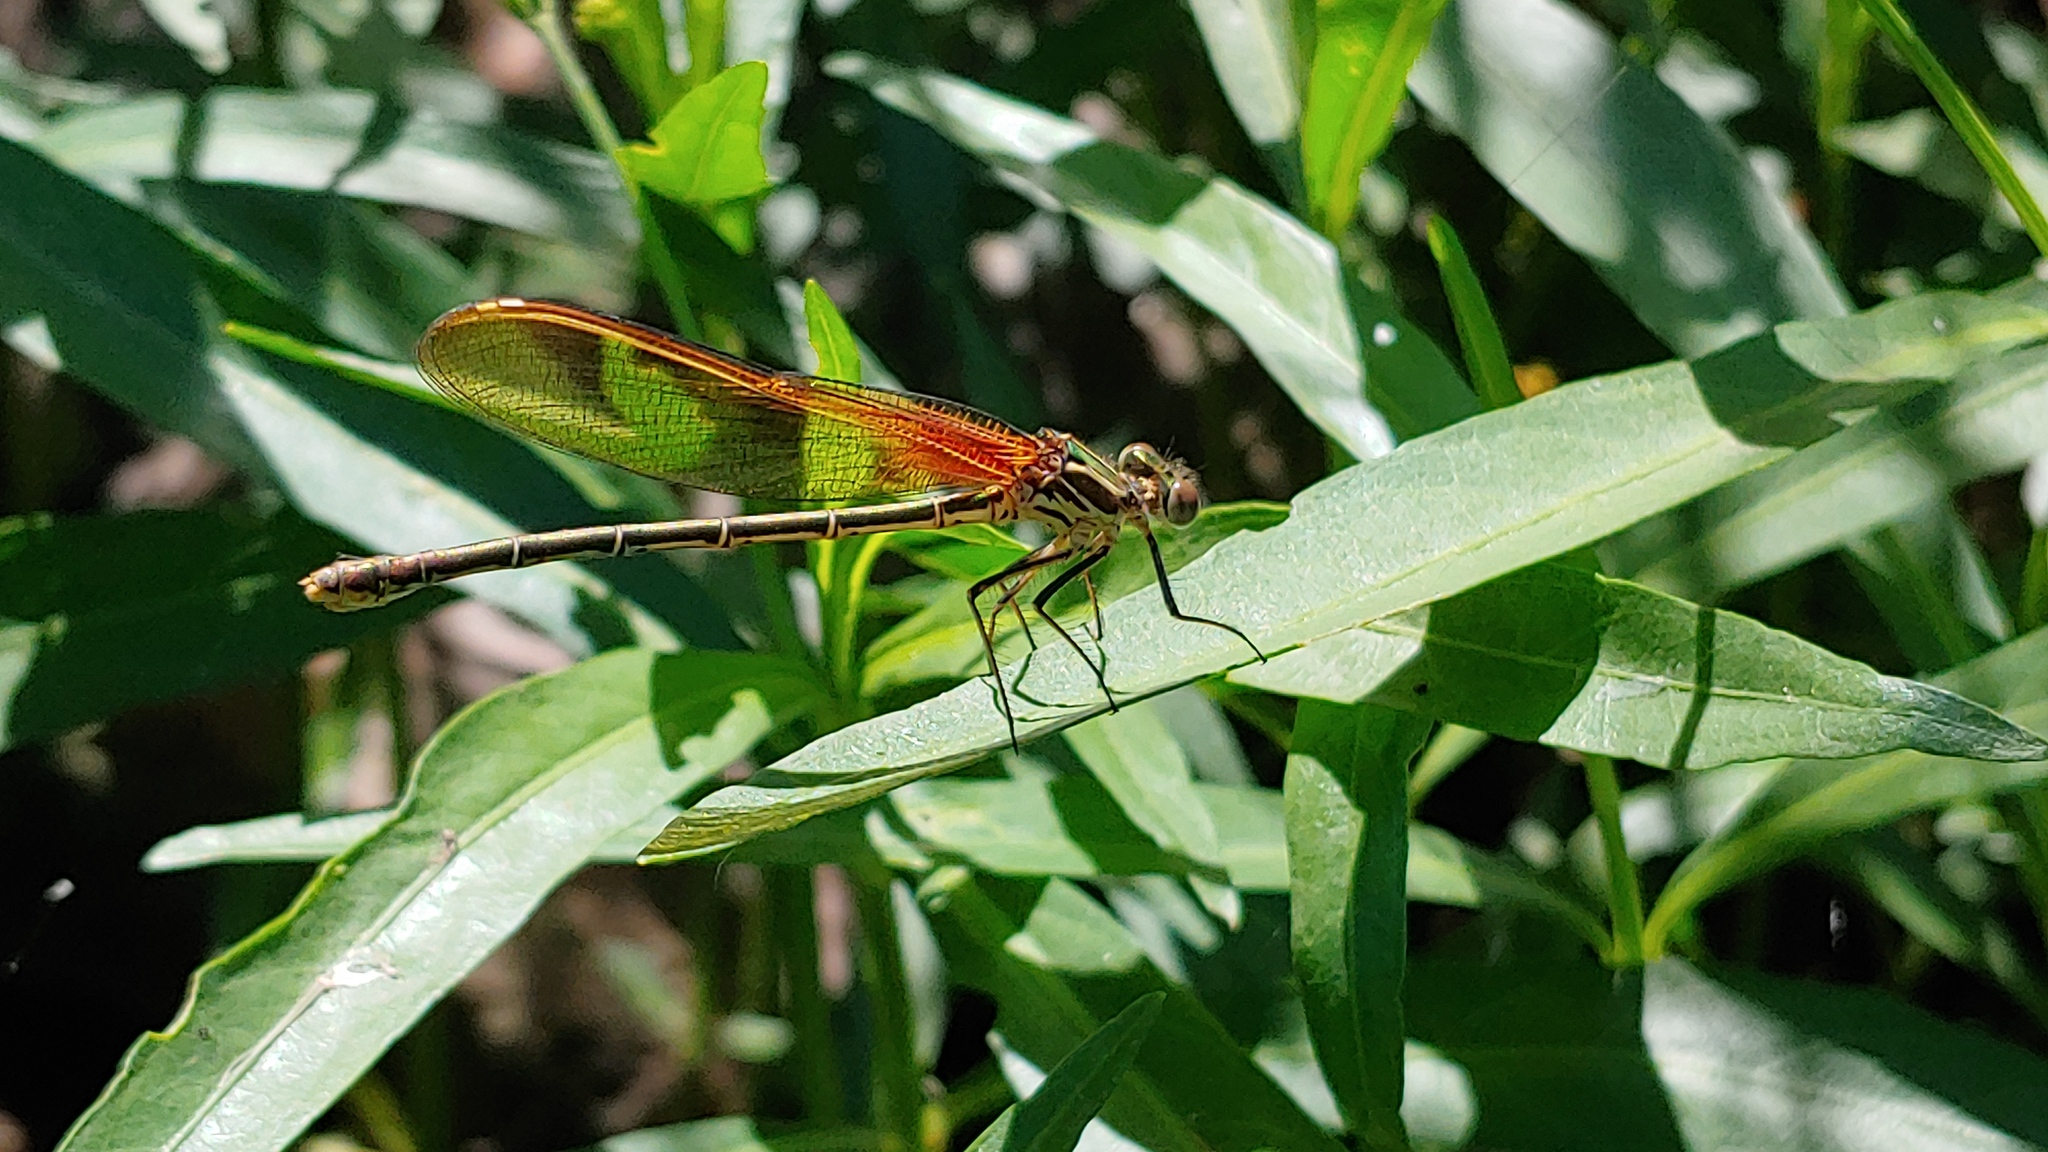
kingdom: Animalia
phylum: Arthropoda
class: Insecta
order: Odonata
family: Calopterygidae
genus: Hetaerina
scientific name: Hetaerina americana
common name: American rubyspot
